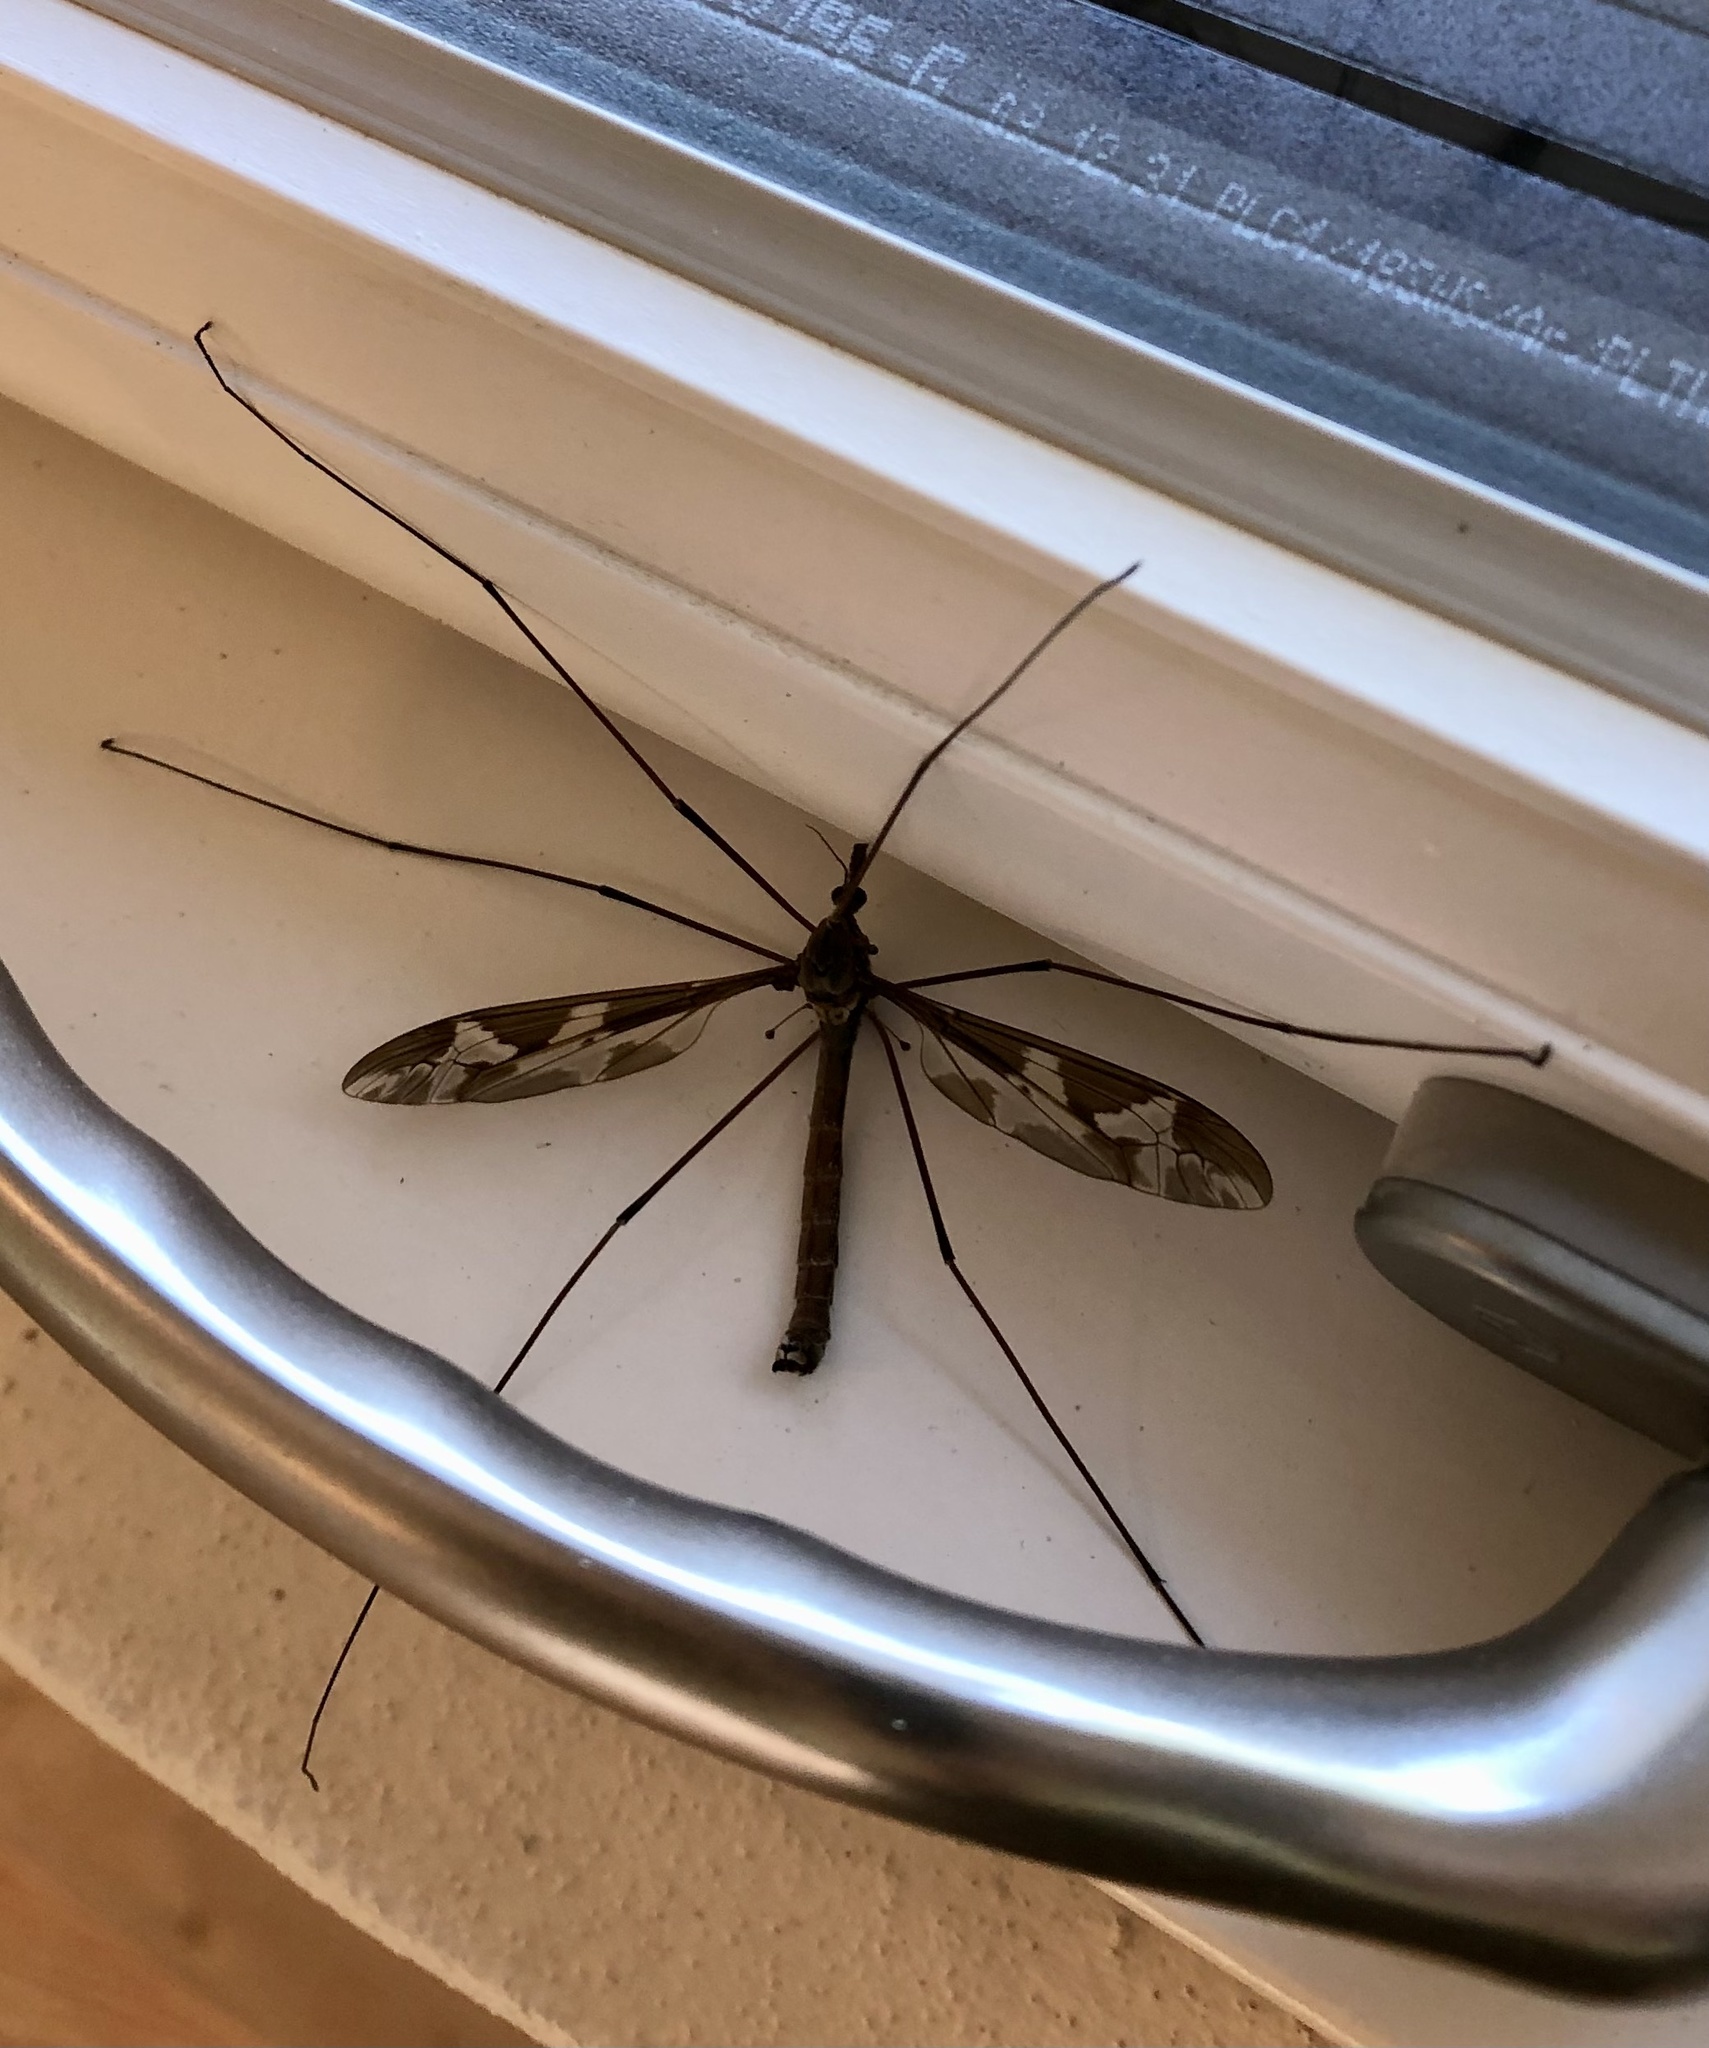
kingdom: Animalia
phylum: Arthropoda
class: Insecta
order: Diptera
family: Tipulidae
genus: Tipula
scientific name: Tipula maxima
